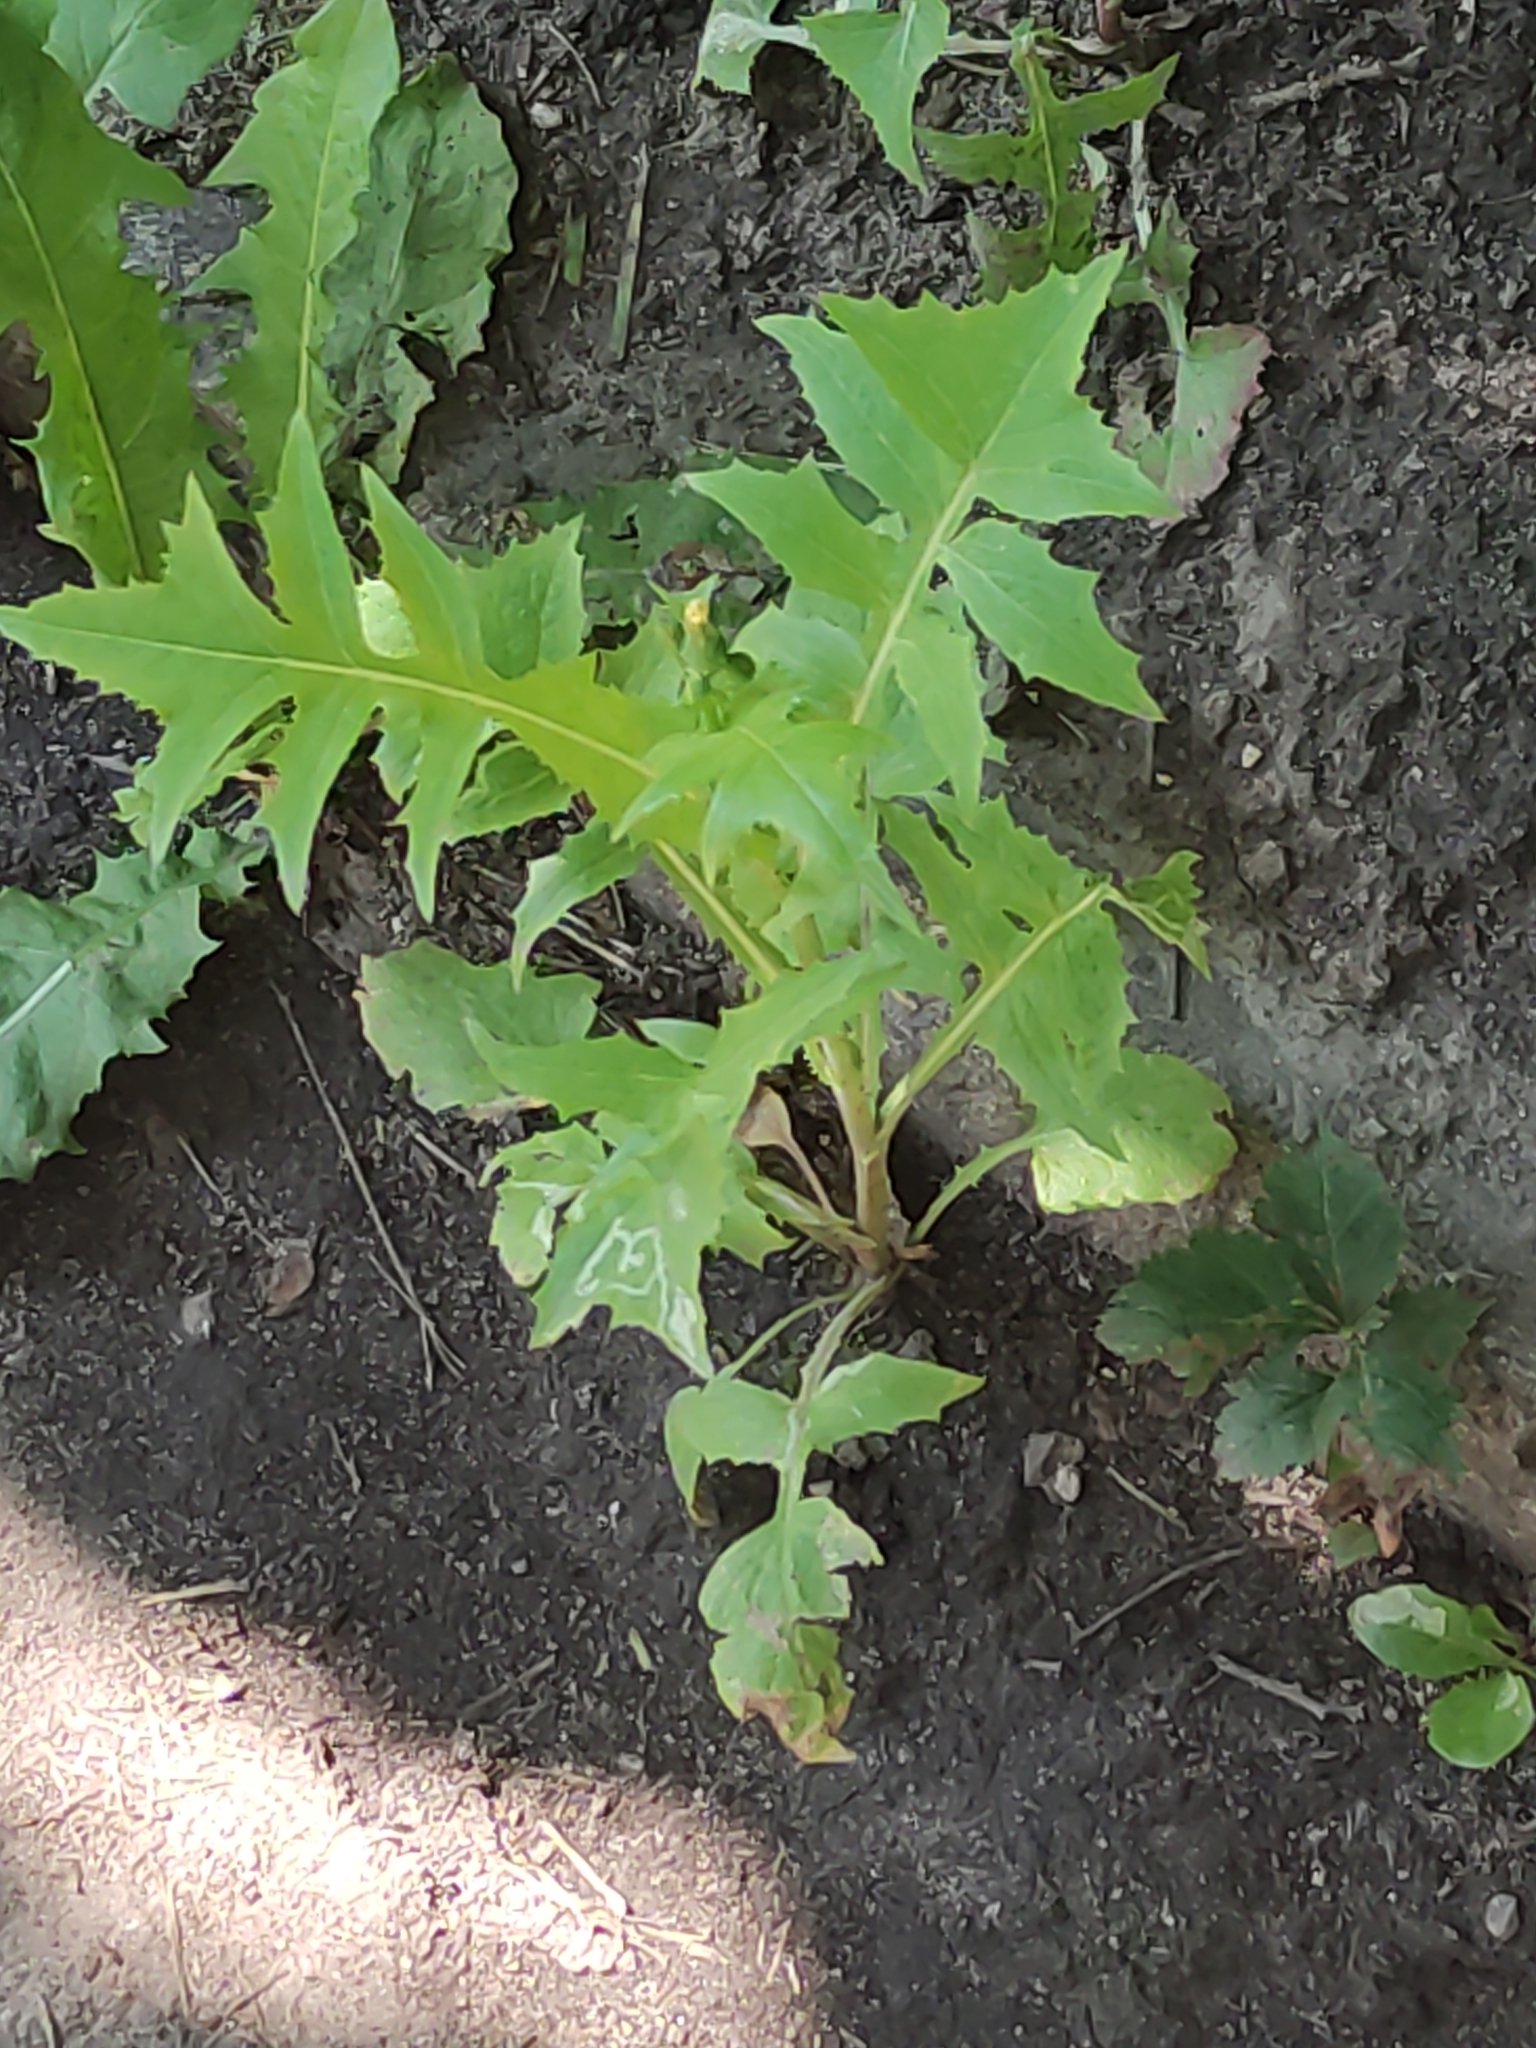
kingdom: Plantae
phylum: Tracheophyta
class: Magnoliopsida
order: Asterales
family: Asteraceae
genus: Sonchus
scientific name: Sonchus oleraceus
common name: Common sowthistle
